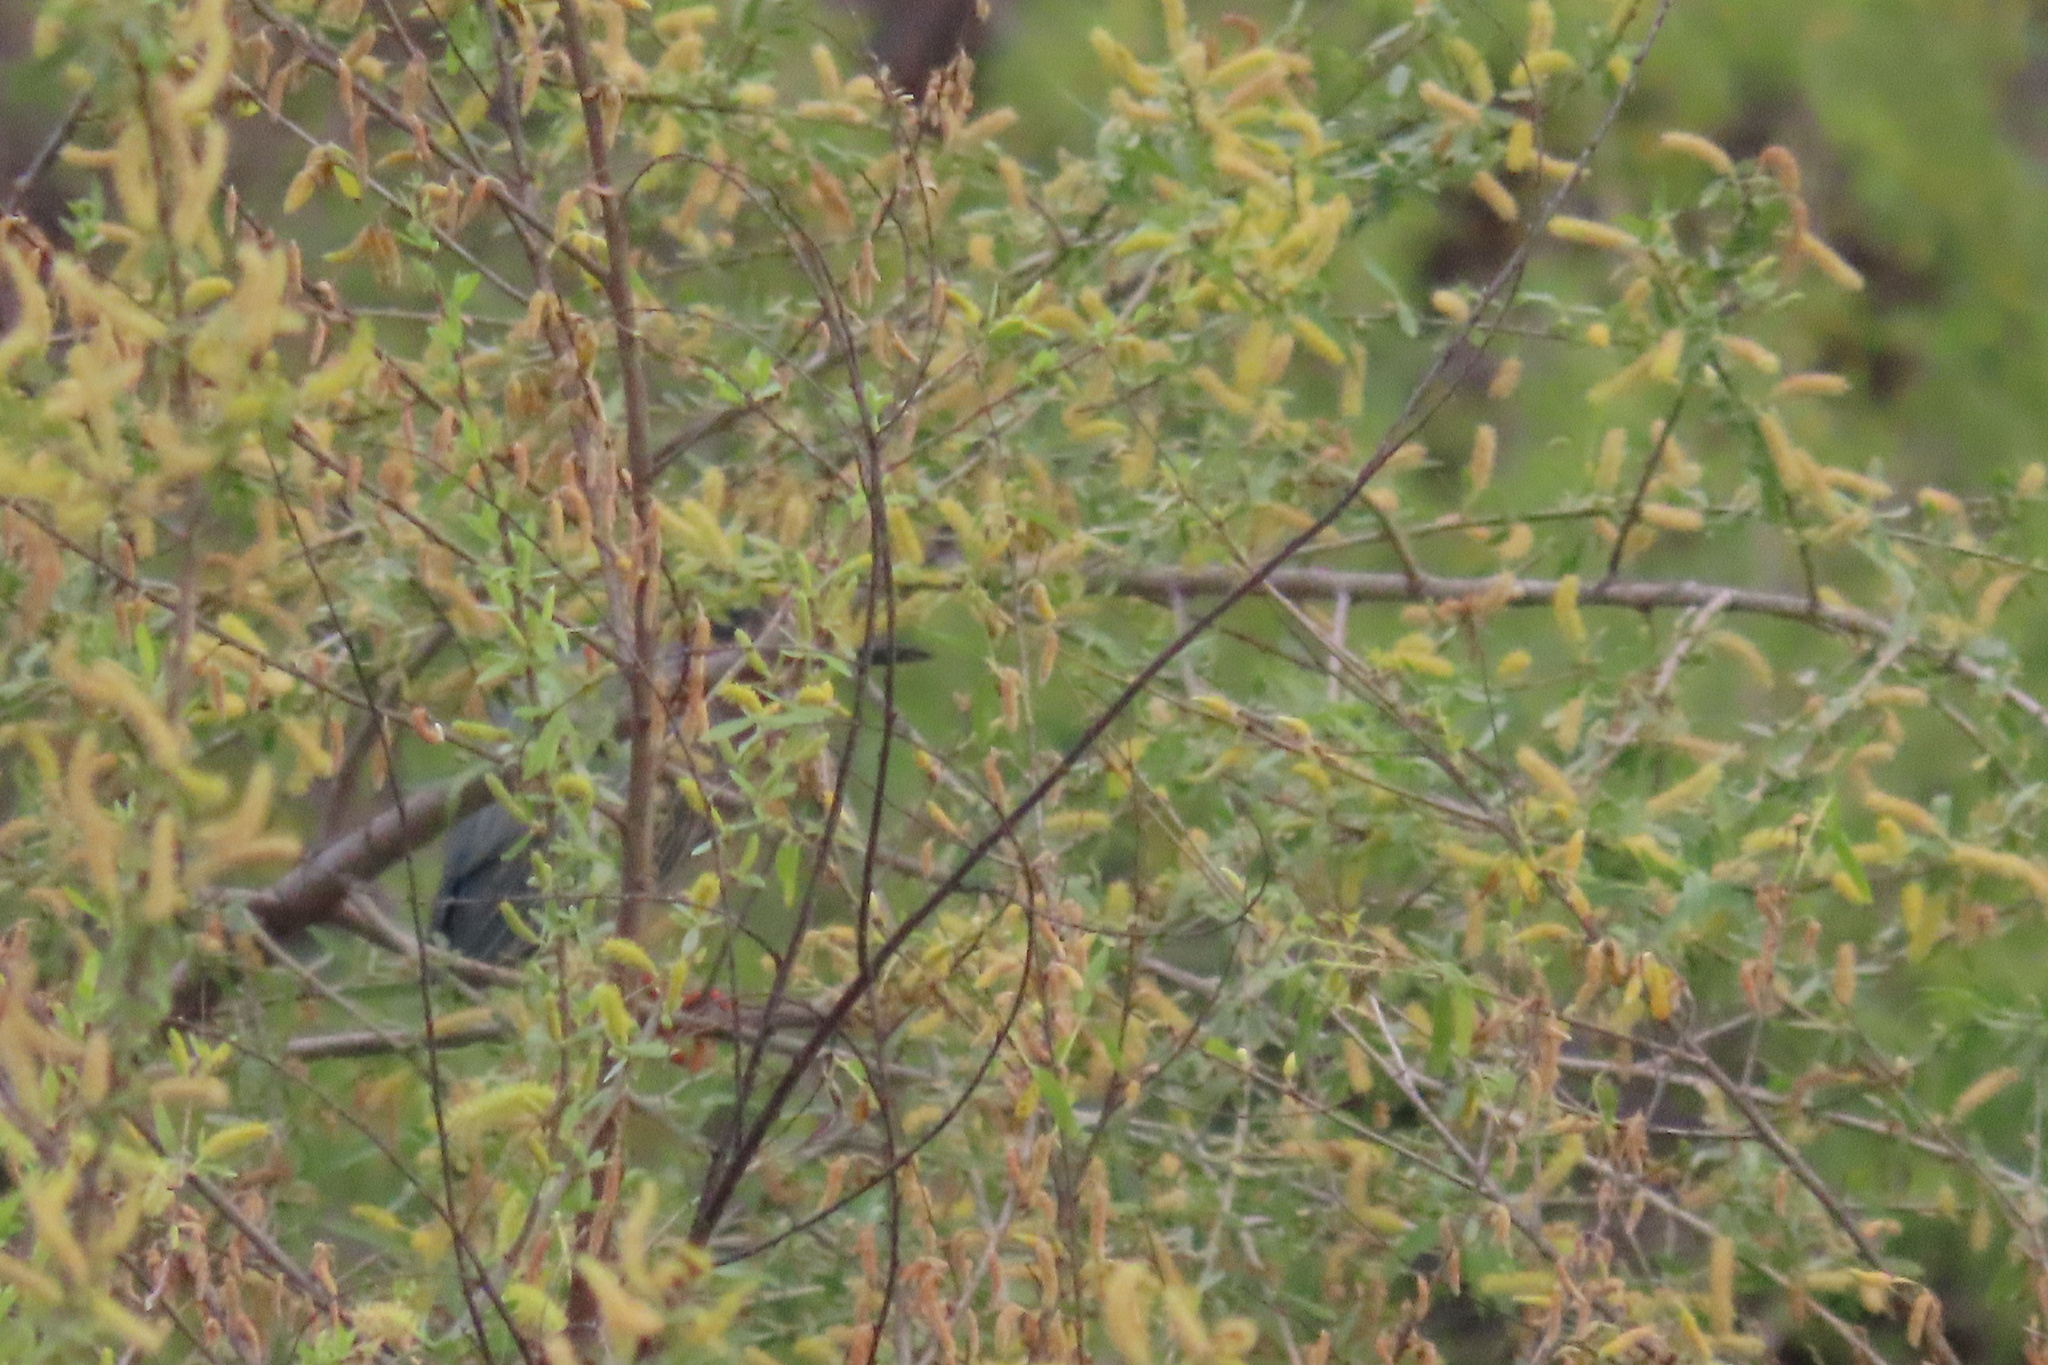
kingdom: Animalia
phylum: Chordata
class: Aves
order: Pelecaniformes
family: Ardeidae
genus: Butorides
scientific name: Butorides virescens
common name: Green heron
